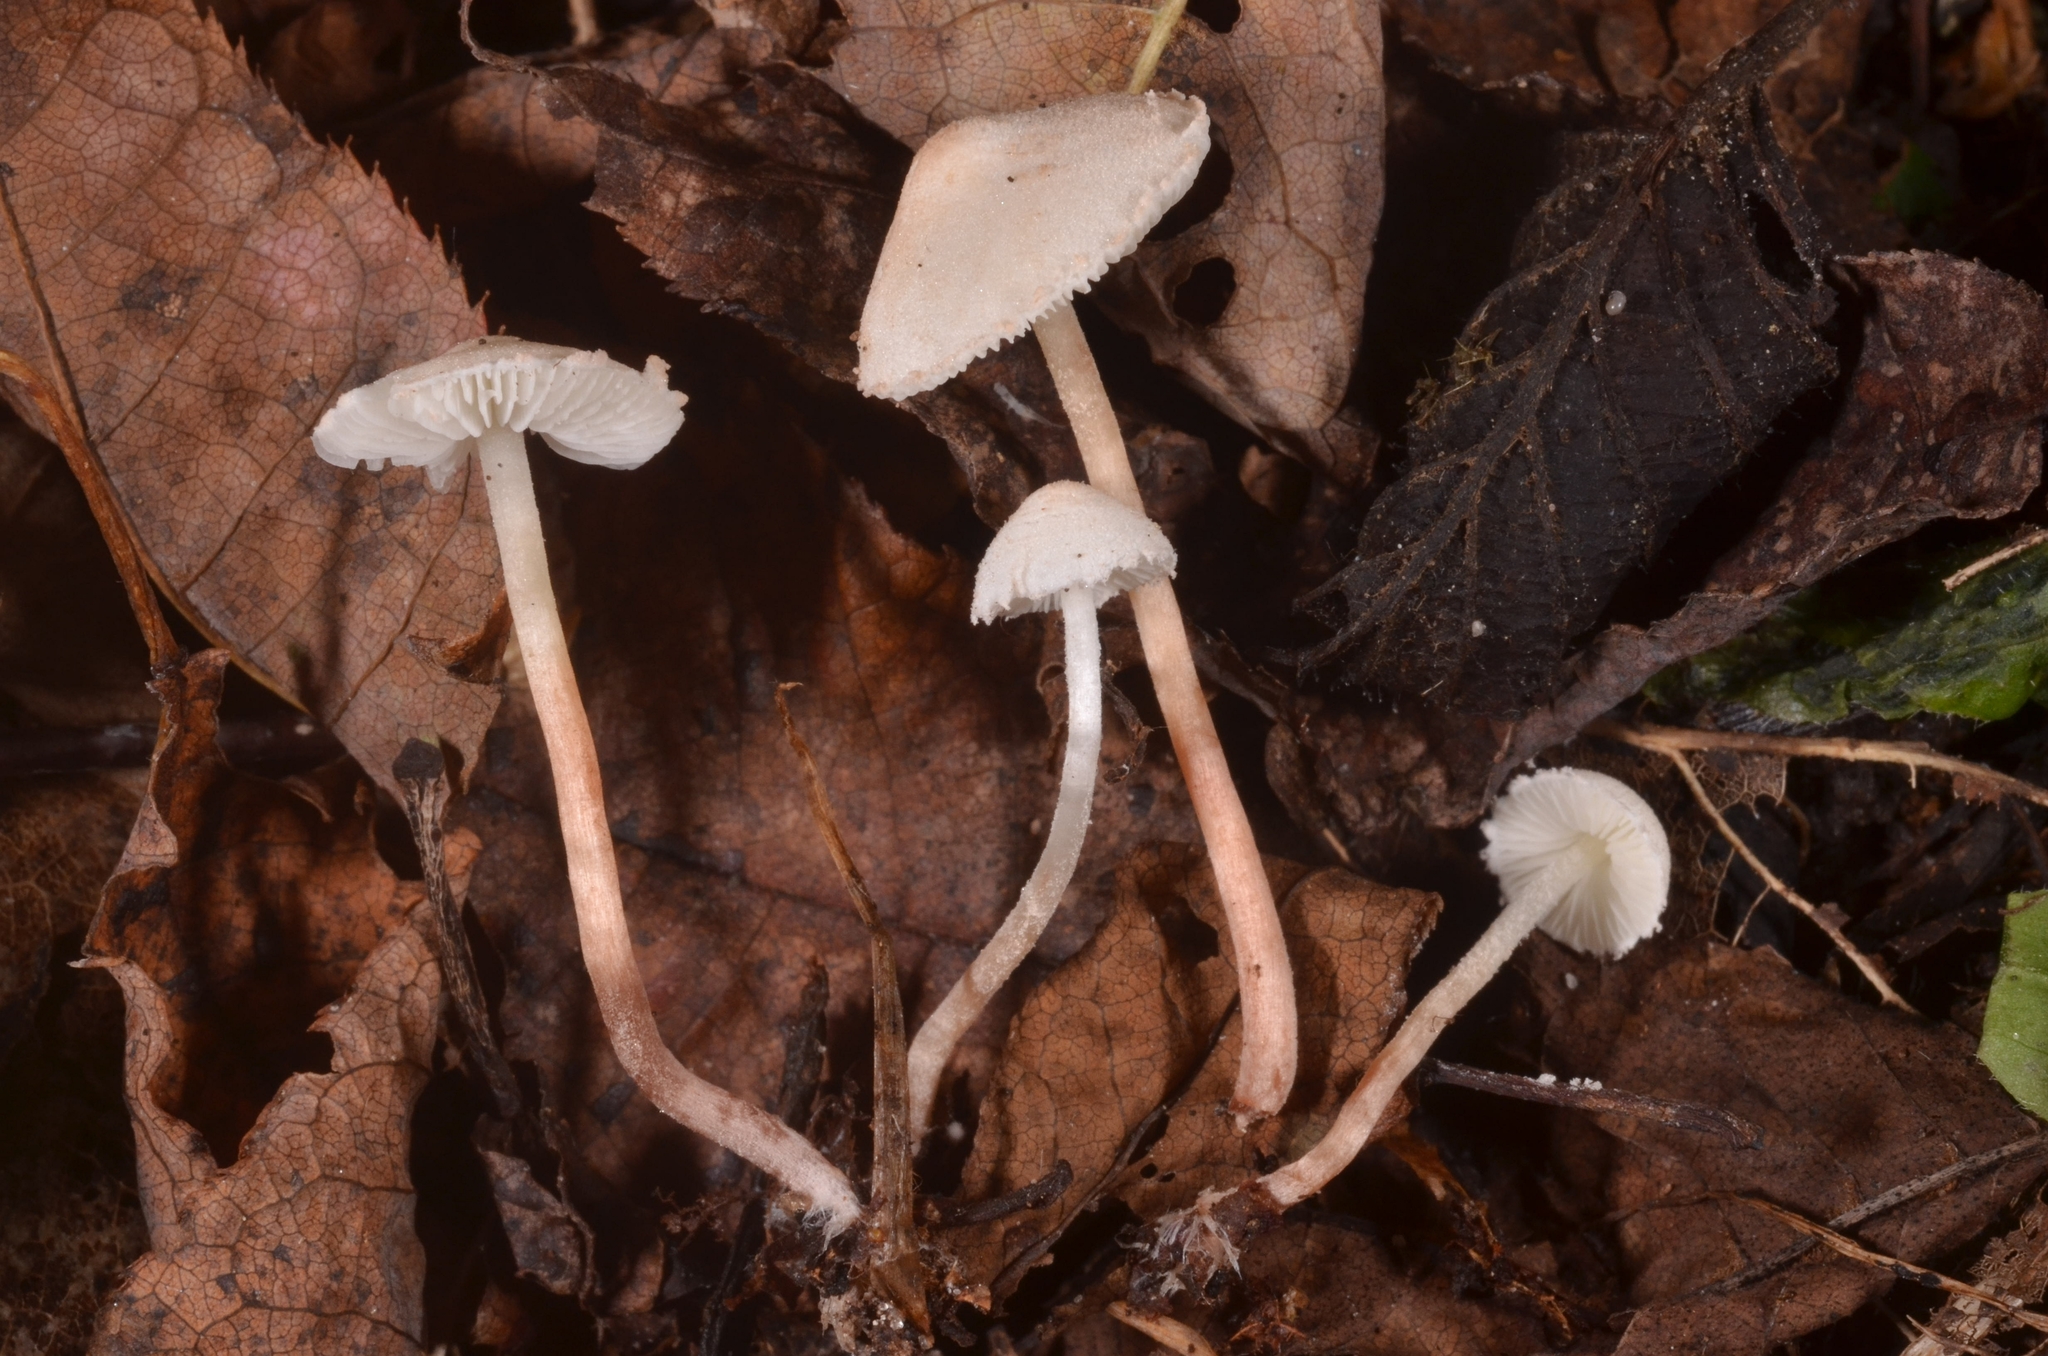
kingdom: Fungi
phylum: Basidiomycota
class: Agaricomycetes
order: Agaricales
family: Agaricaceae
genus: Cystolepiota
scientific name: Cystolepiota seminuda
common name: Bearded dapperling
